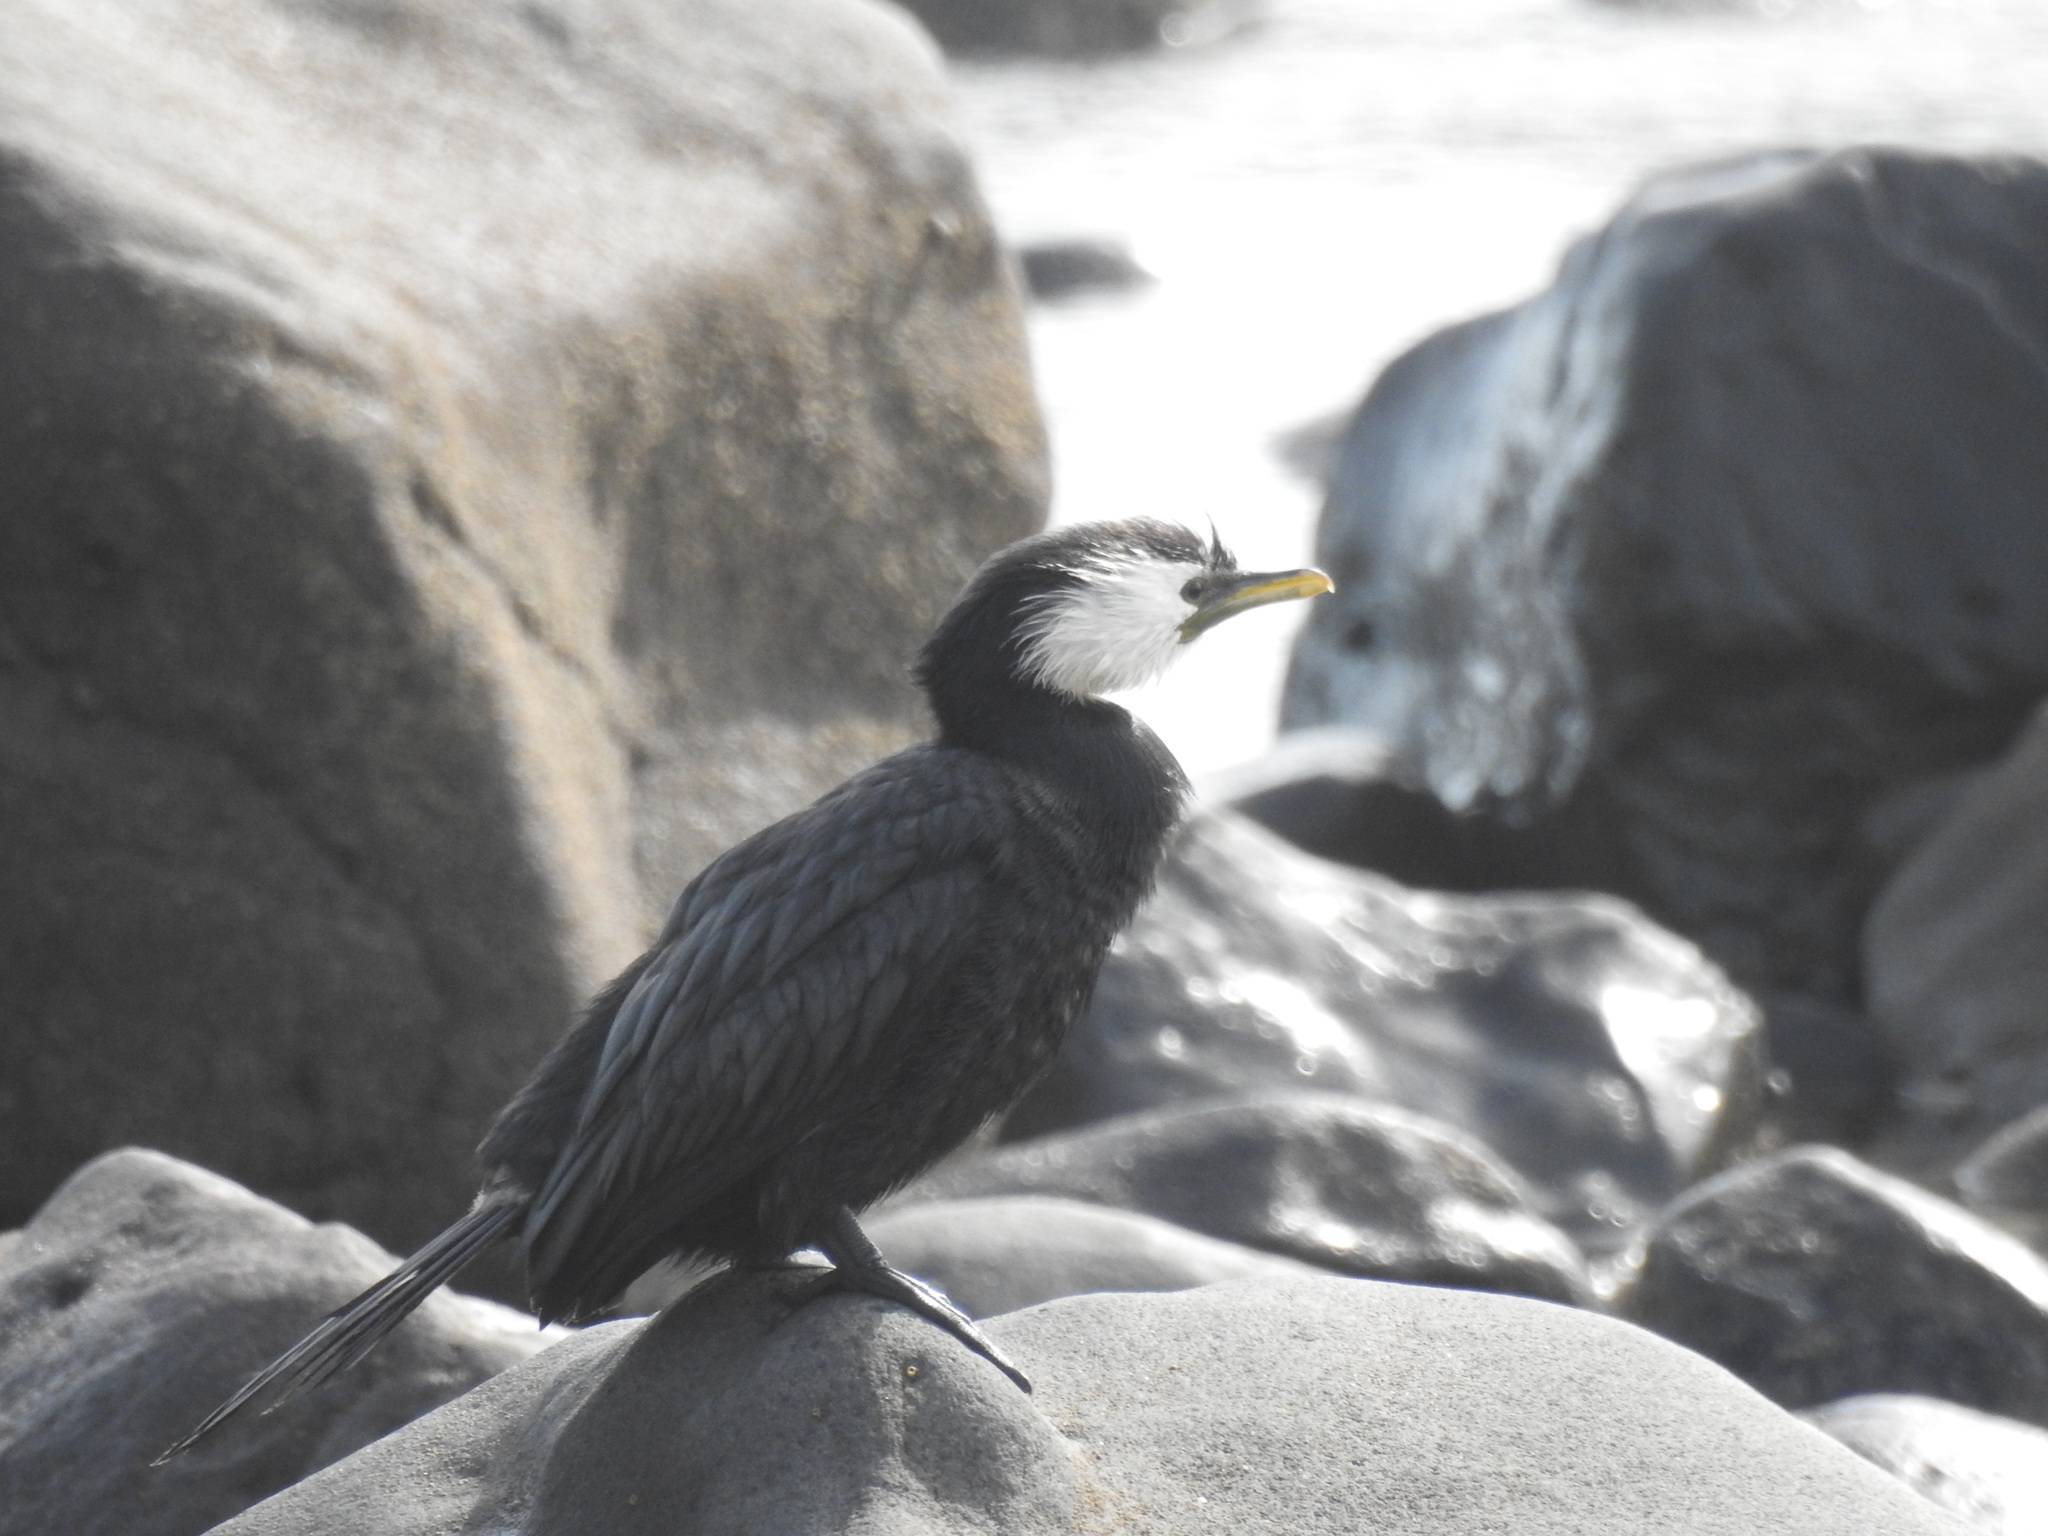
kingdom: Animalia
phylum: Chordata
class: Aves
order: Suliformes
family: Phalacrocoracidae
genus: Microcarbo
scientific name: Microcarbo melanoleucos
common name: Little pied cormorant
